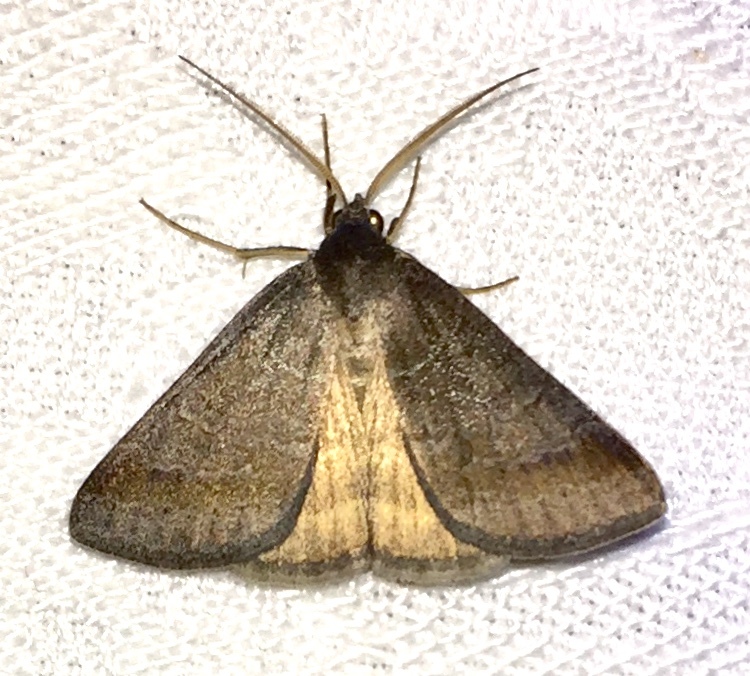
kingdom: Animalia
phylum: Arthropoda
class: Insecta
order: Lepidoptera
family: Erebidae
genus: Caenurgia
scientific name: Caenurgia chloropha
